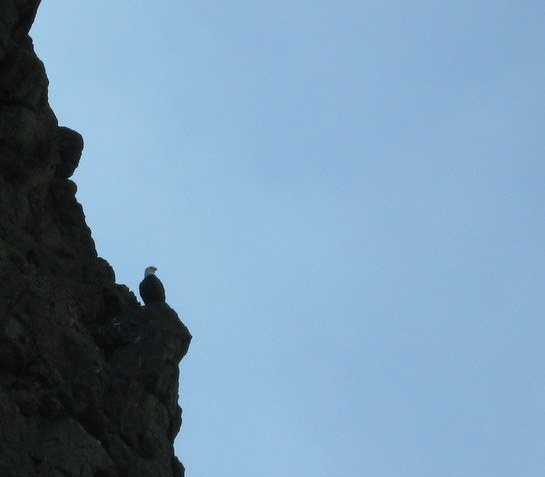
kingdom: Animalia
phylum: Chordata
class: Aves
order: Accipitriformes
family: Accipitridae
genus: Haliaeetus
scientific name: Haliaeetus leucocephalus
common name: Bald eagle
